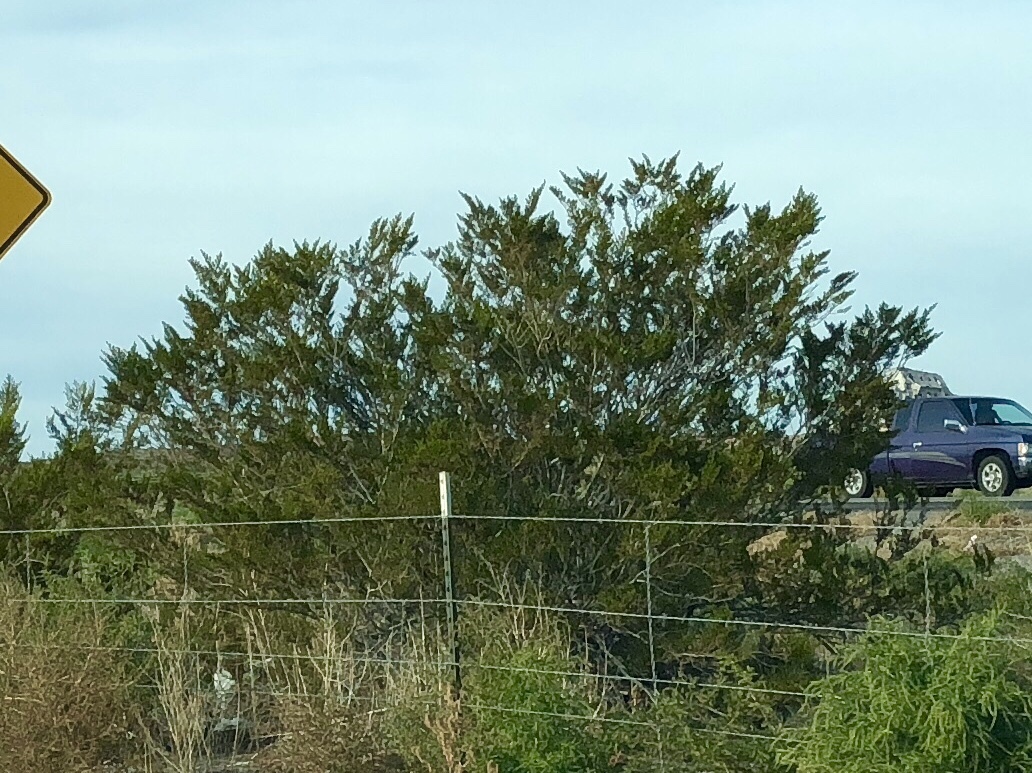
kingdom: Plantae
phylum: Tracheophyta
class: Magnoliopsida
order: Zygophyllales
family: Zygophyllaceae
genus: Larrea
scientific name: Larrea tridentata
